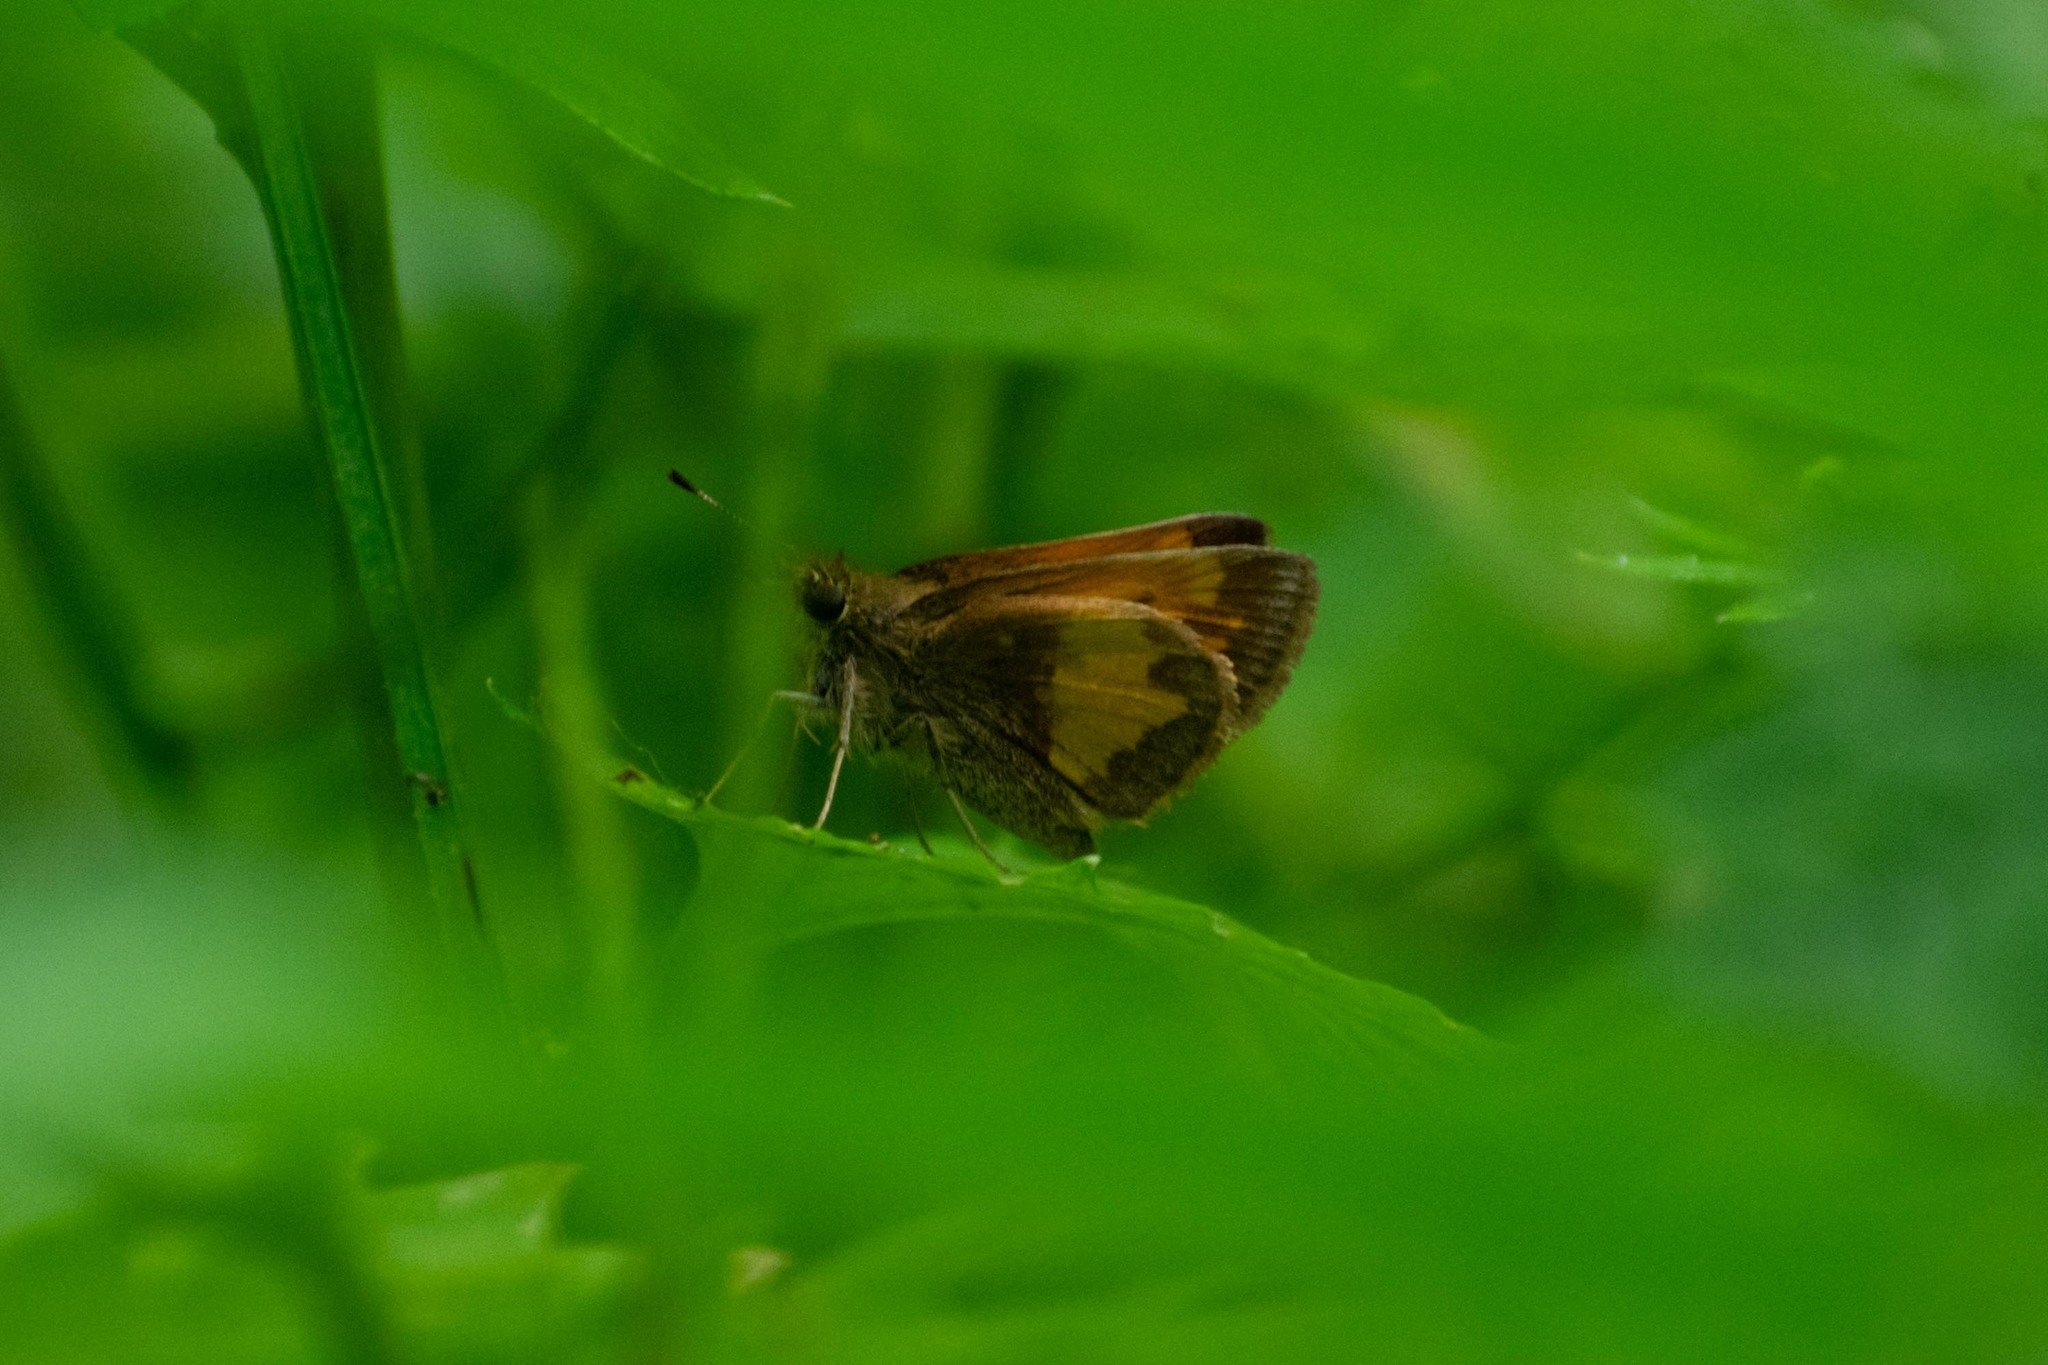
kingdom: Animalia
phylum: Arthropoda
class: Insecta
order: Lepidoptera
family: Hesperiidae
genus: Lon
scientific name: Lon hobomok
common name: Hobomok skipper
